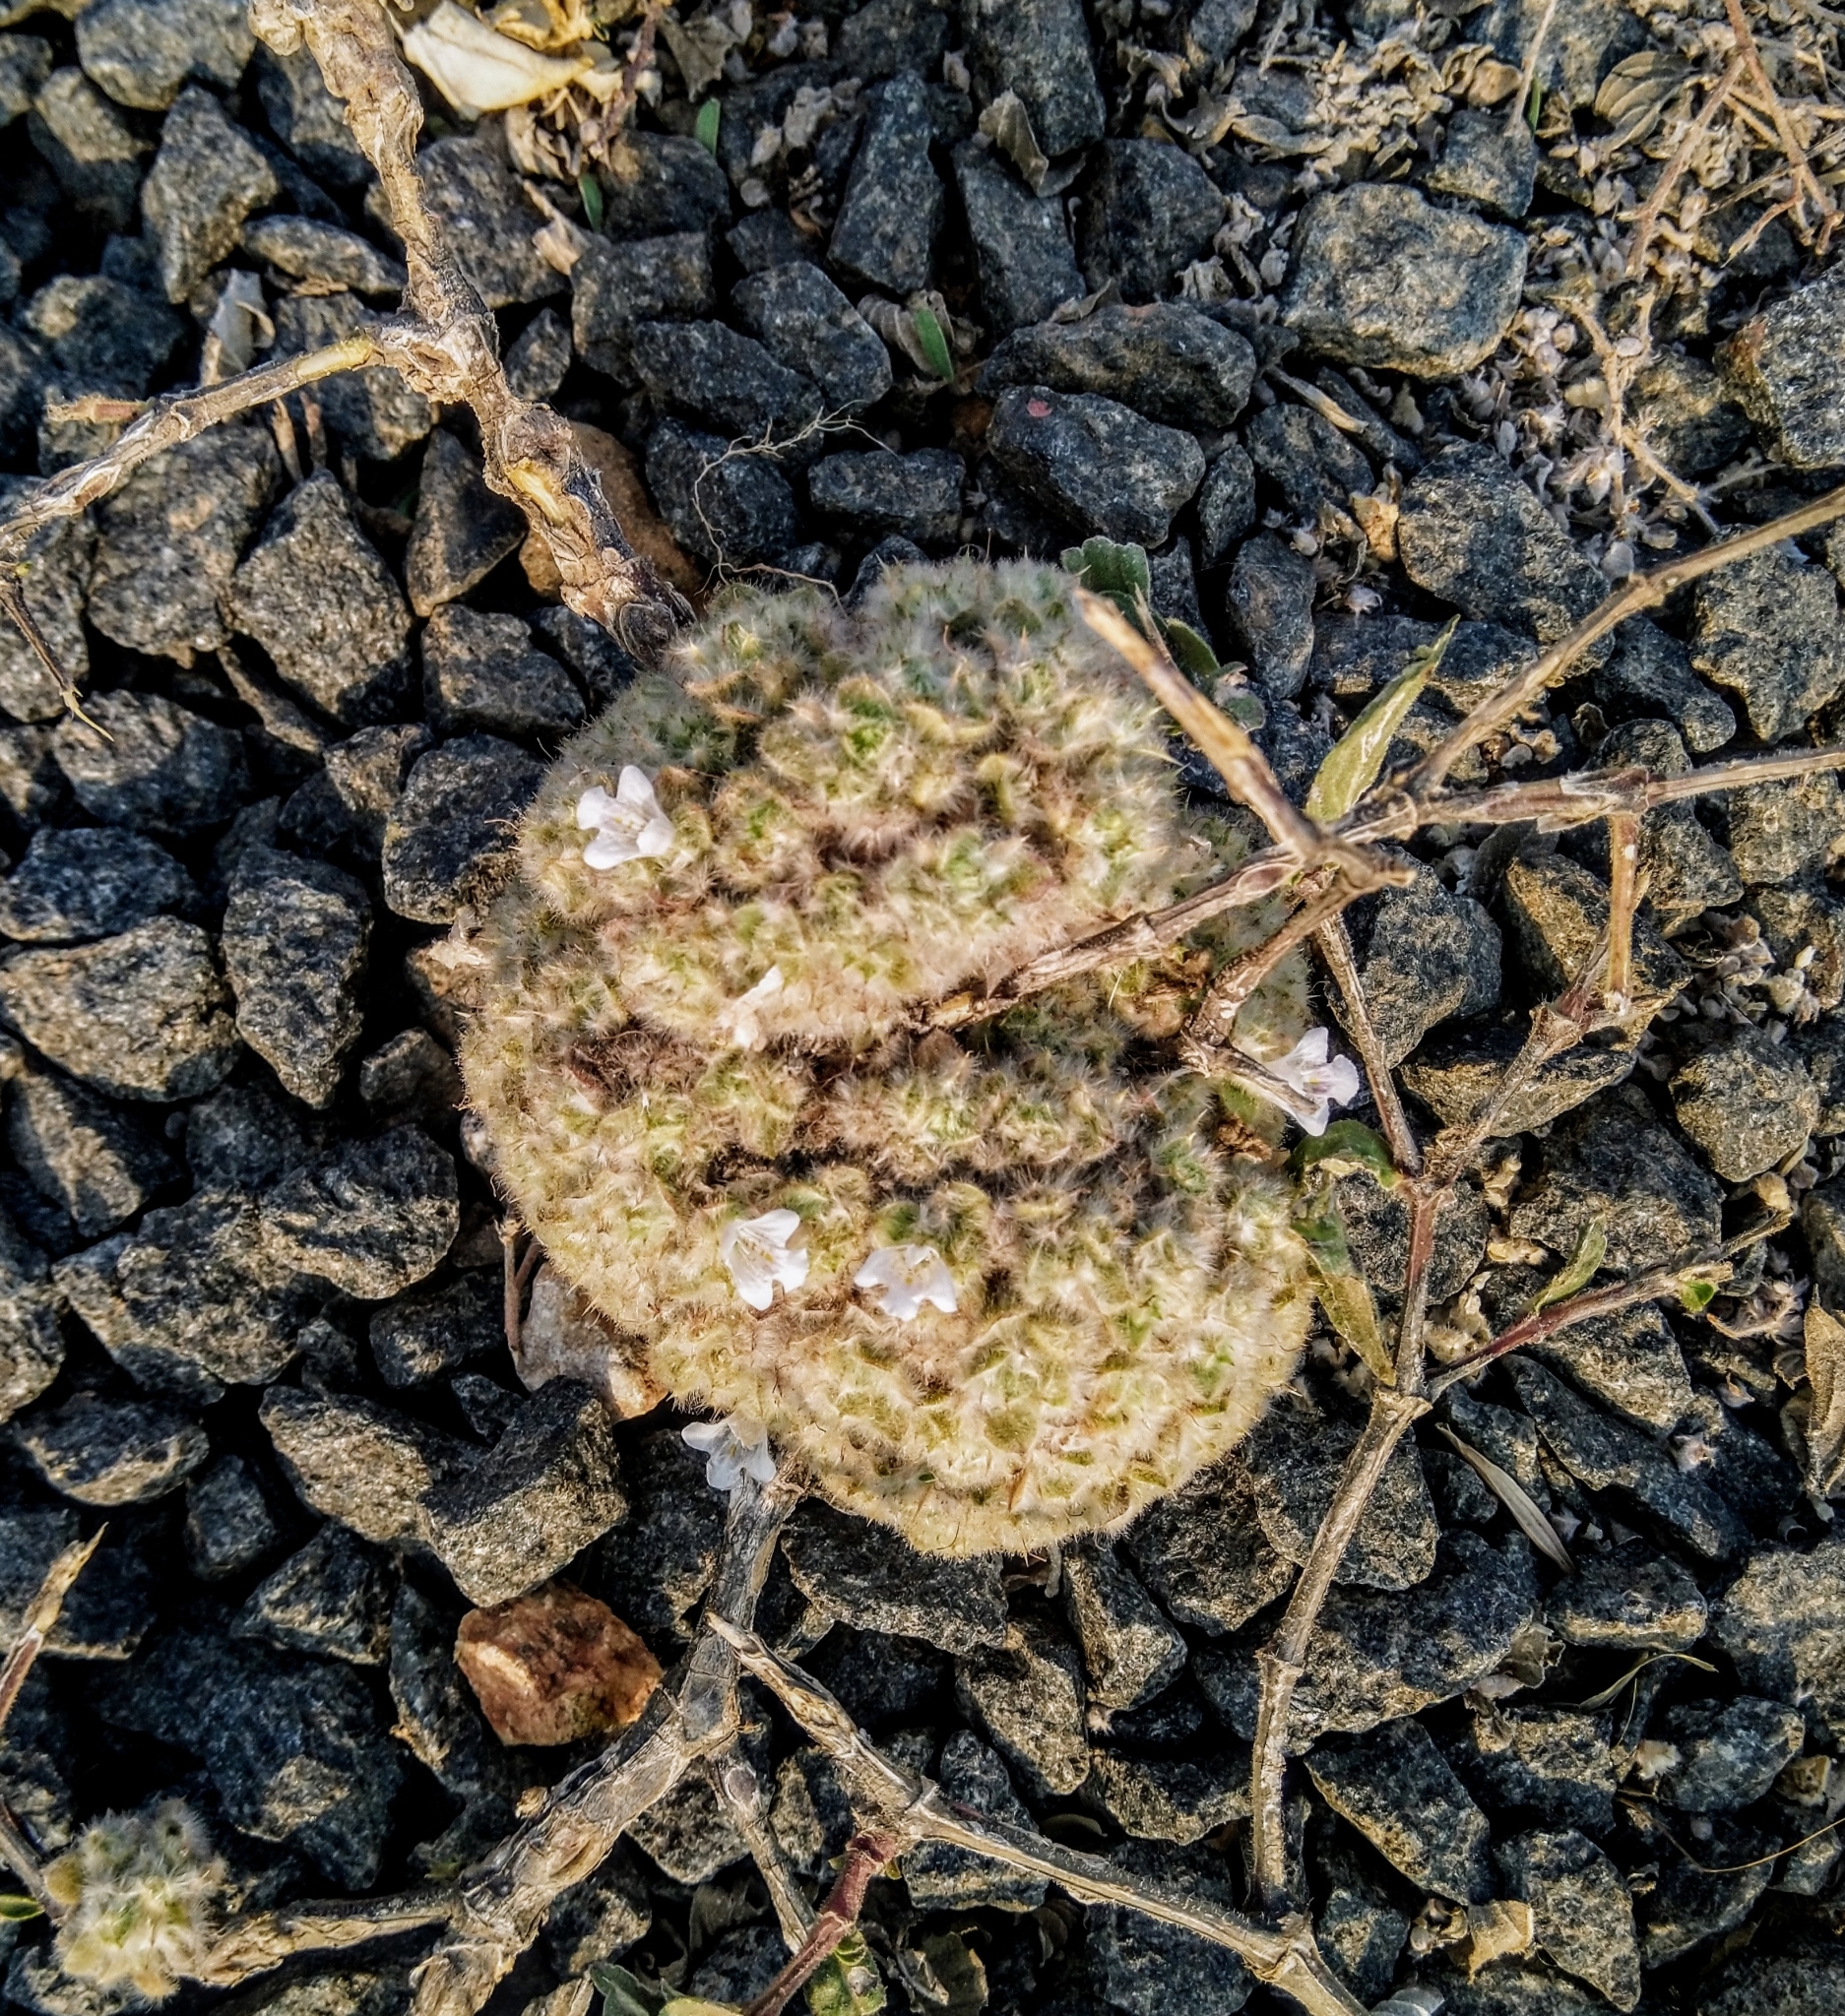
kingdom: Plantae
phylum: Tracheophyta
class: Magnoliopsida
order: Lamiales
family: Acanthaceae
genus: Lepidagathis
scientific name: Lepidagathis cristata
